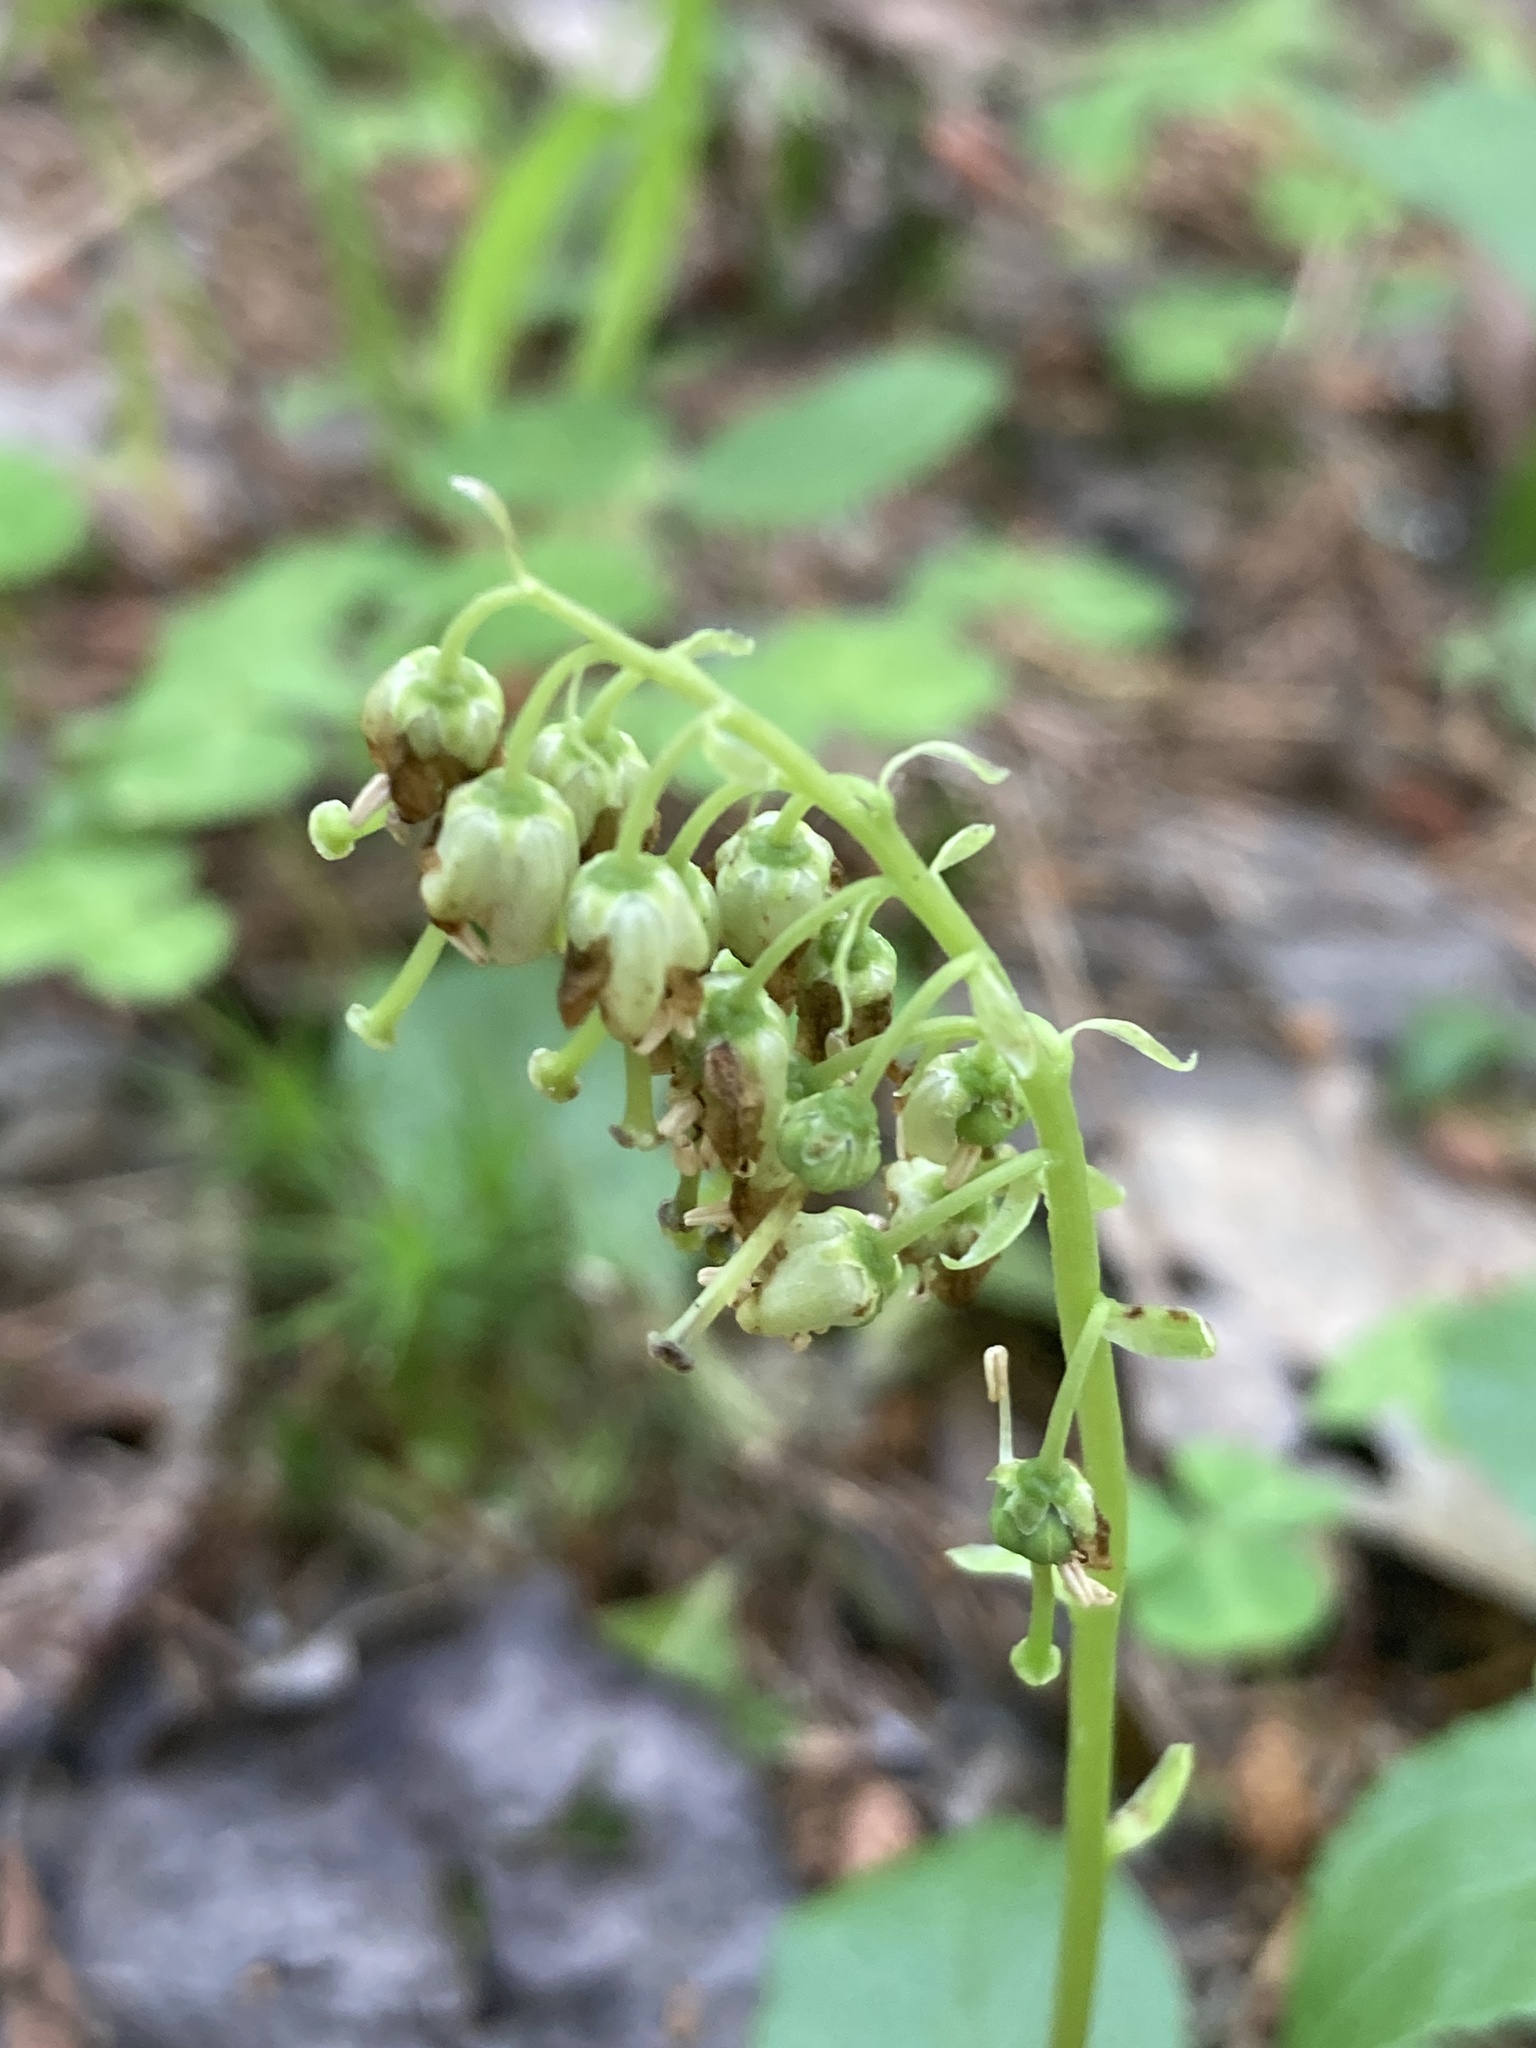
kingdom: Plantae
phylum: Tracheophyta
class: Magnoliopsida
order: Ericales
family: Ericaceae
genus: Orthilia
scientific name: Orthilia secunda
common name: One-sided orthilia
